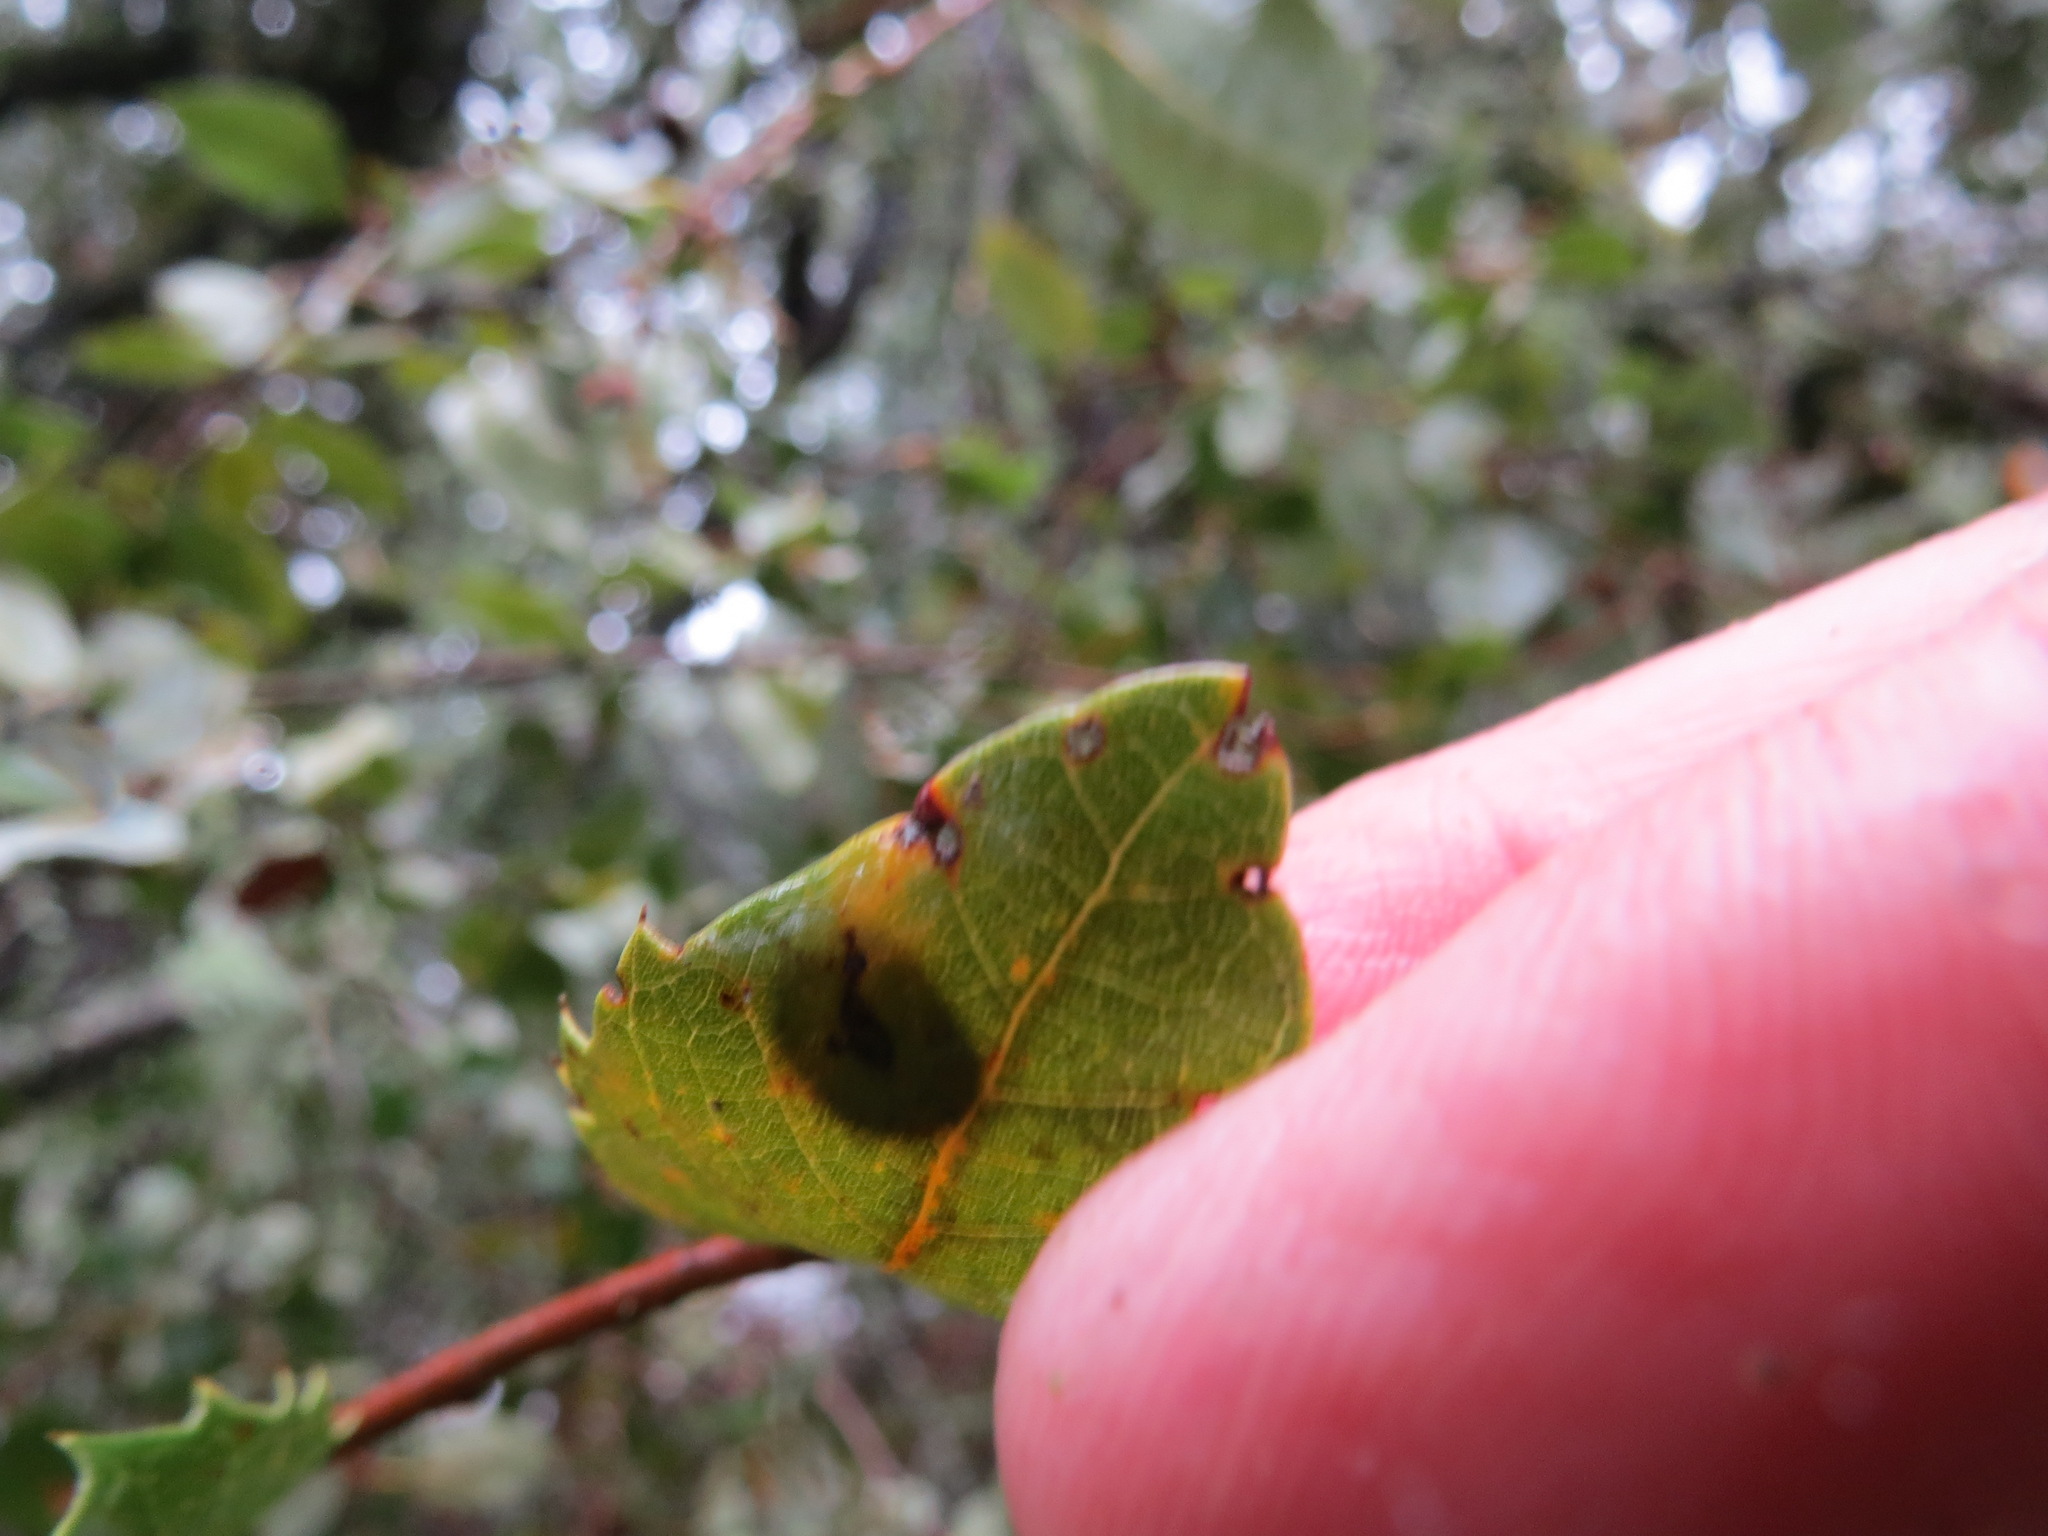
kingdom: Animalia
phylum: Arthropoda
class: Insecta
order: Hymenoptera
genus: Paracraspis
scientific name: Paracraspis
